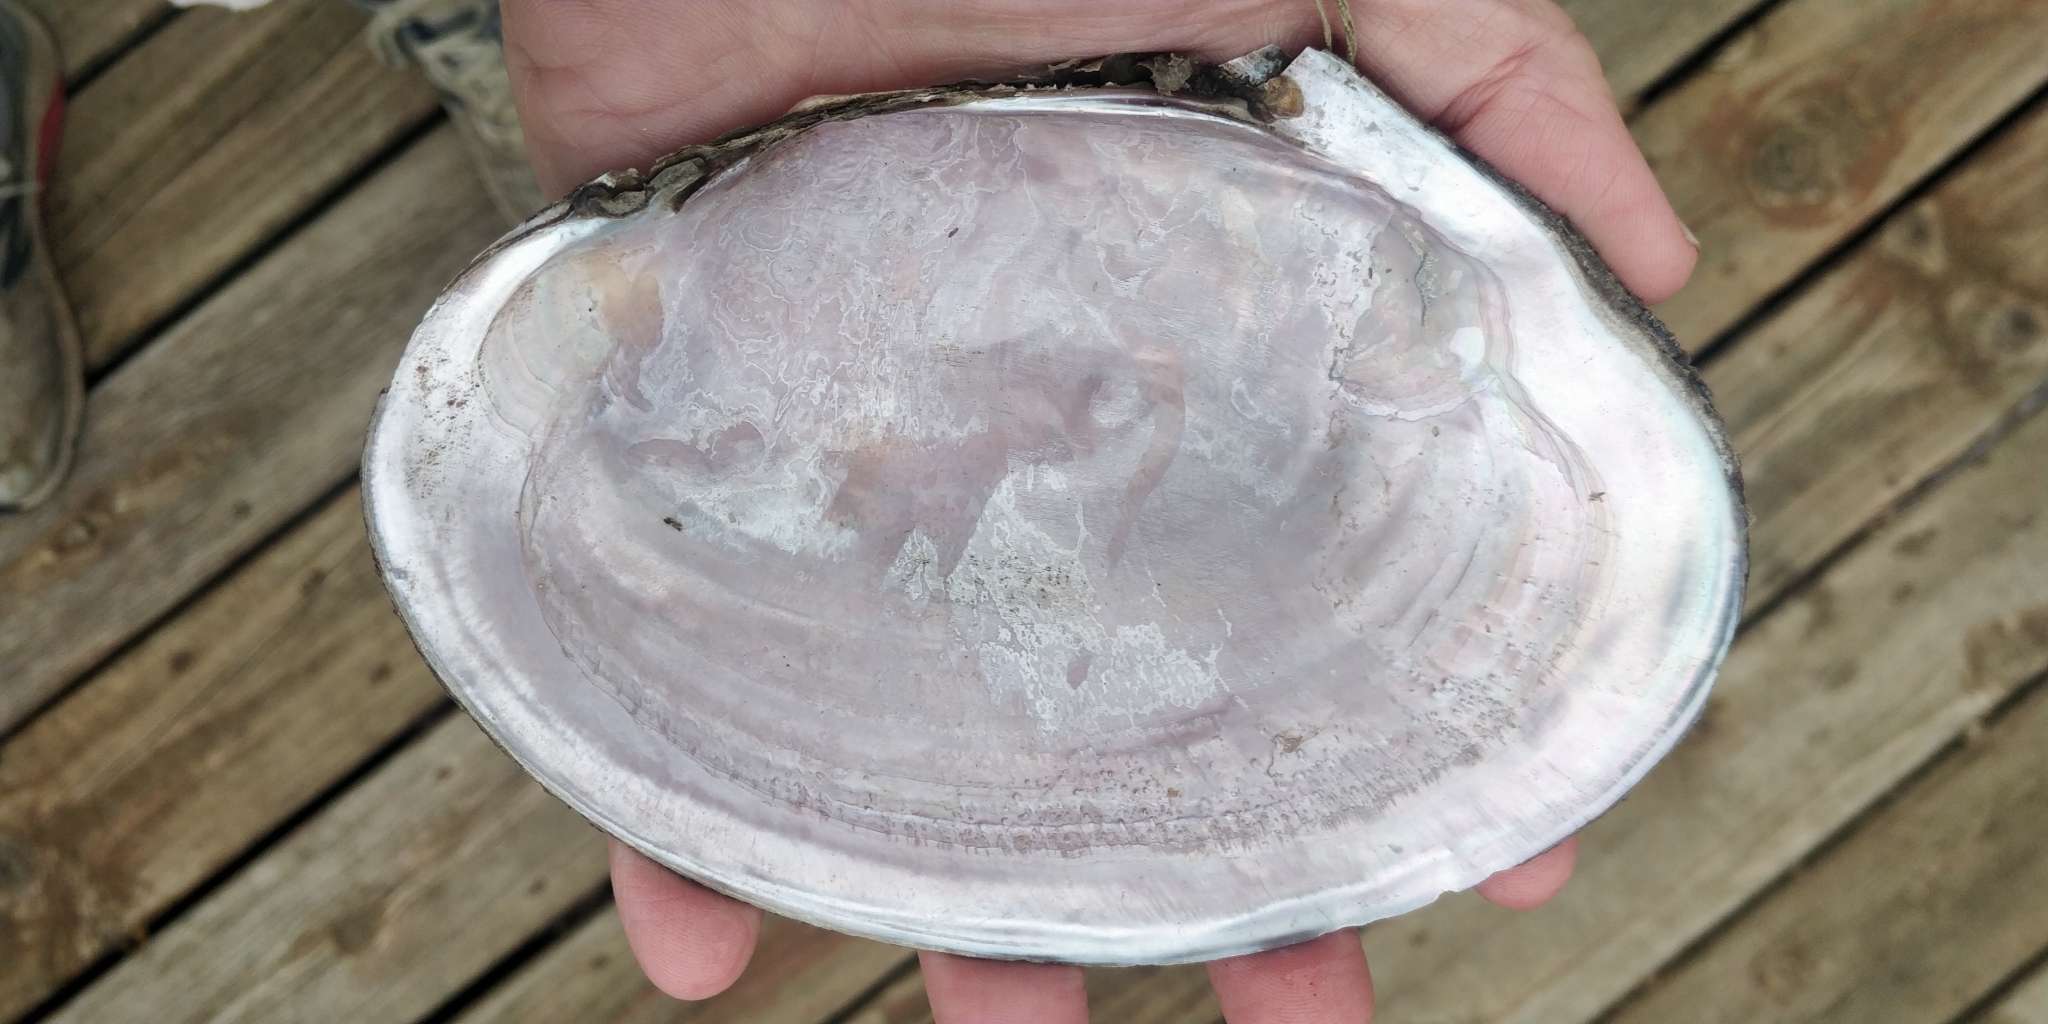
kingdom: Animalia
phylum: Mollusca
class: Bivalvia
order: Unionida
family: Unionidae
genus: Potamilus
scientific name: Potamilus ohiensis
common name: Pink papershell
